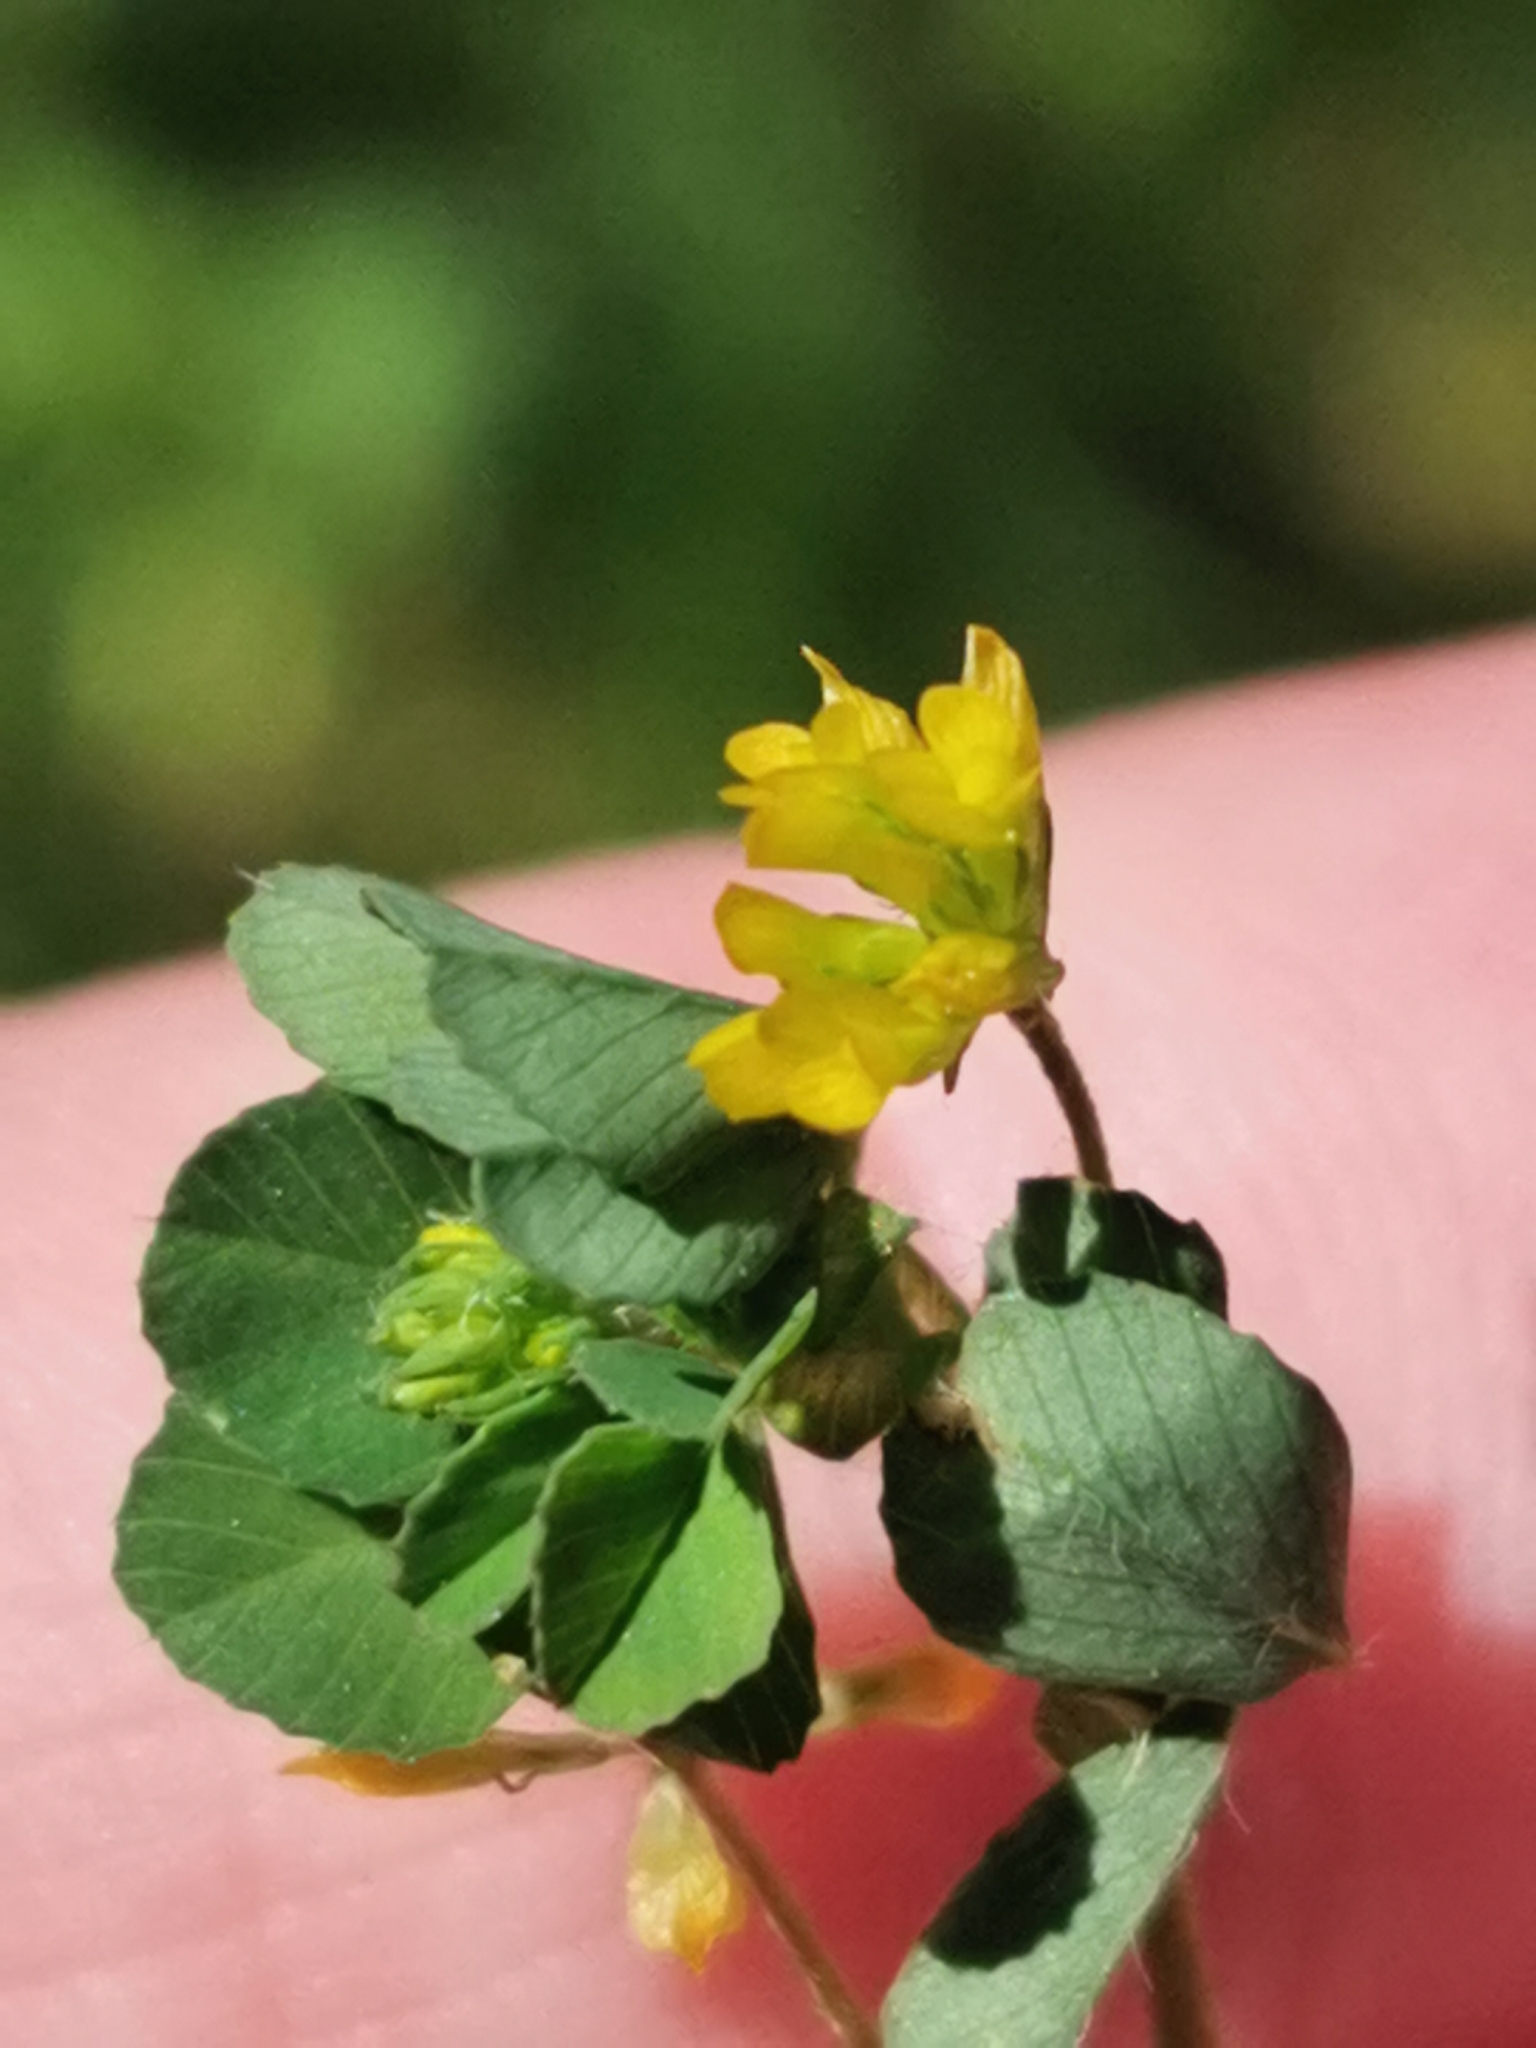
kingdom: Plantae
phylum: Tracheophyta
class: Magnoliopsida
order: Fabales
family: Fabaceae
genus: Trifolium
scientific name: Trifolium dubium
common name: Suckling clover
